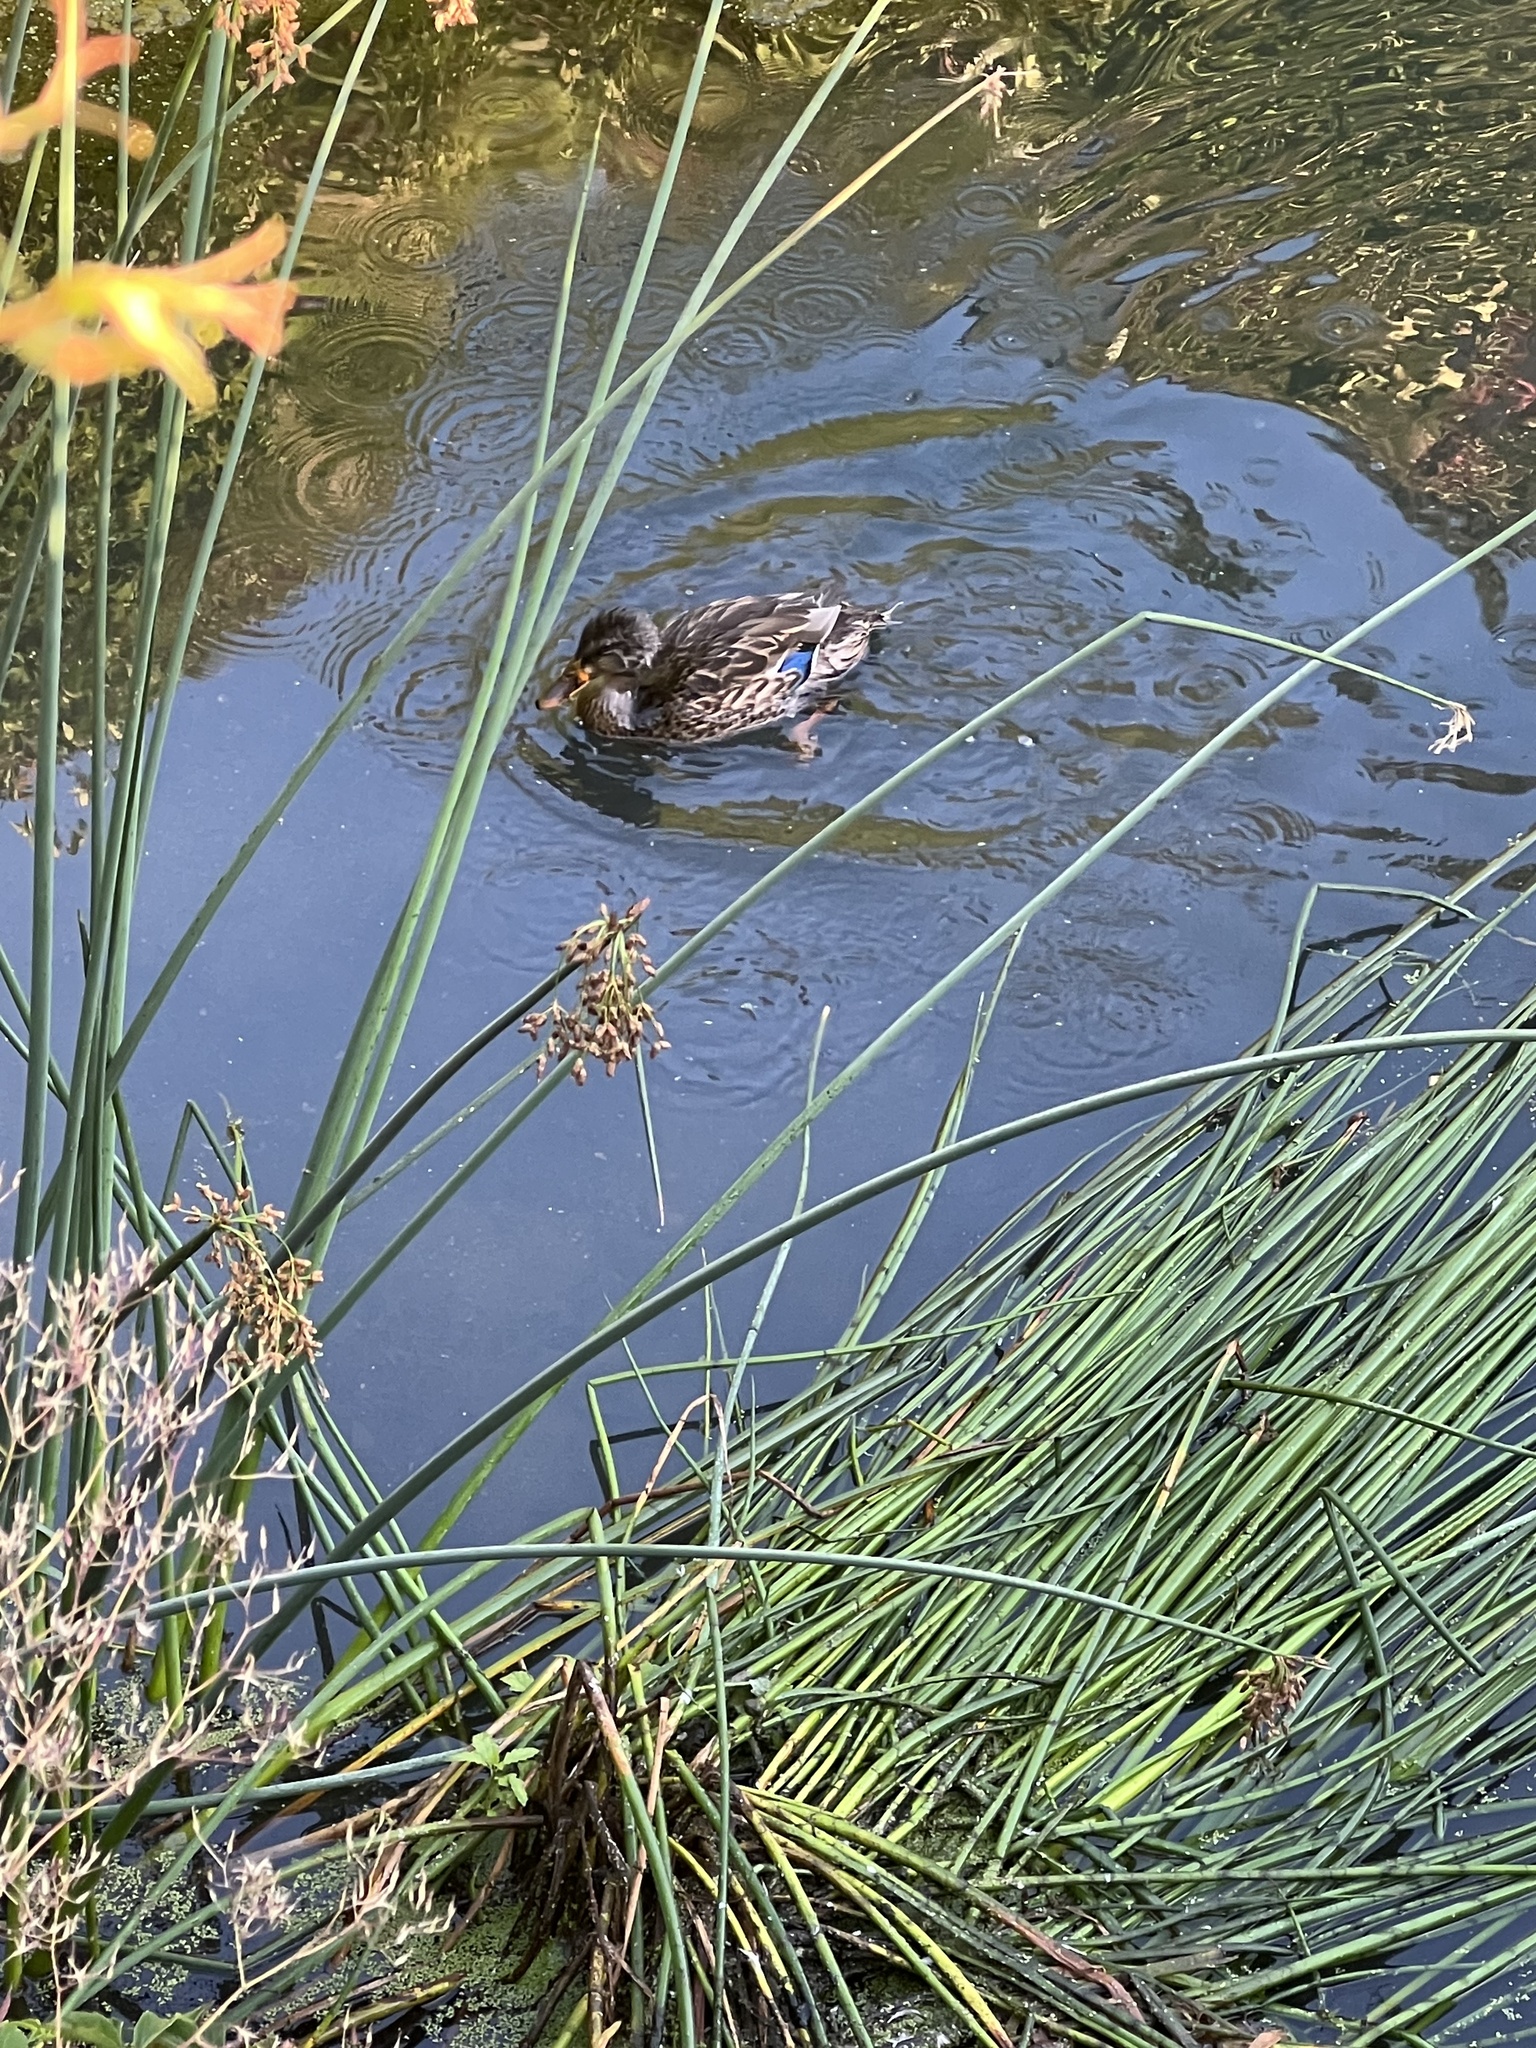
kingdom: Animalia
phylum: Chordata
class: Aves
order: Anseriformes
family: Anatidae
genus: Anas
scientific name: Anas platyrhynchos
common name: Mallard
